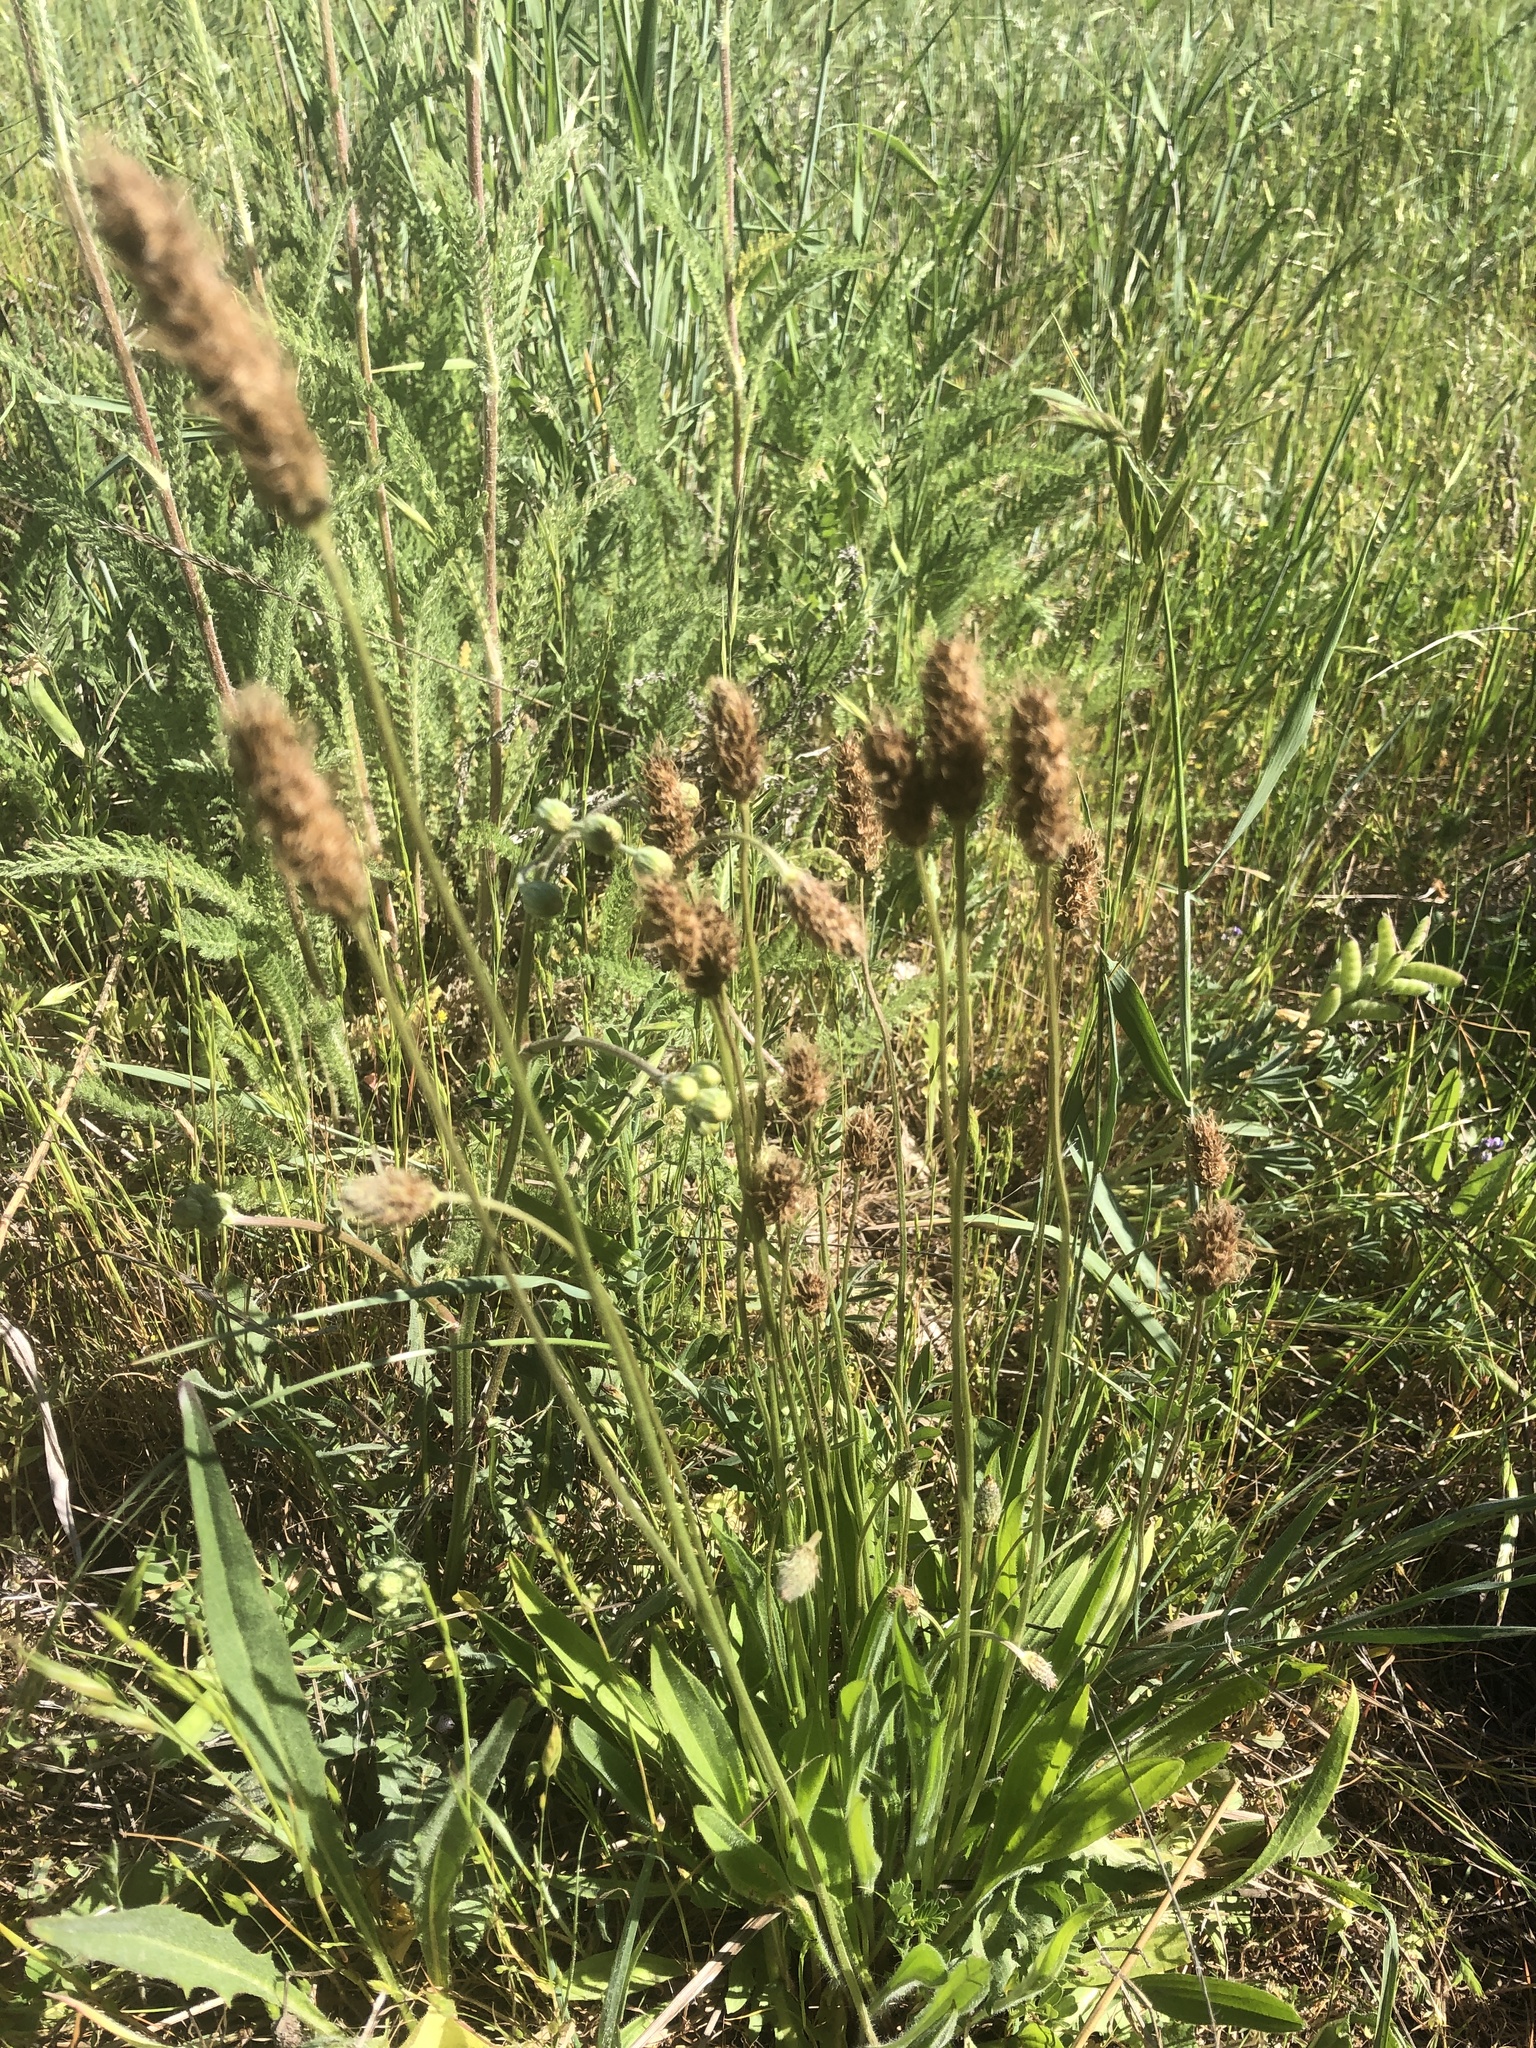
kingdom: Plantae
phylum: Tracheophyta
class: Magnoliopsida
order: Lamiales
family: Plantaginaceae
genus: Plantago
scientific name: Plantago lanceolata
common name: Ribwort plantain
